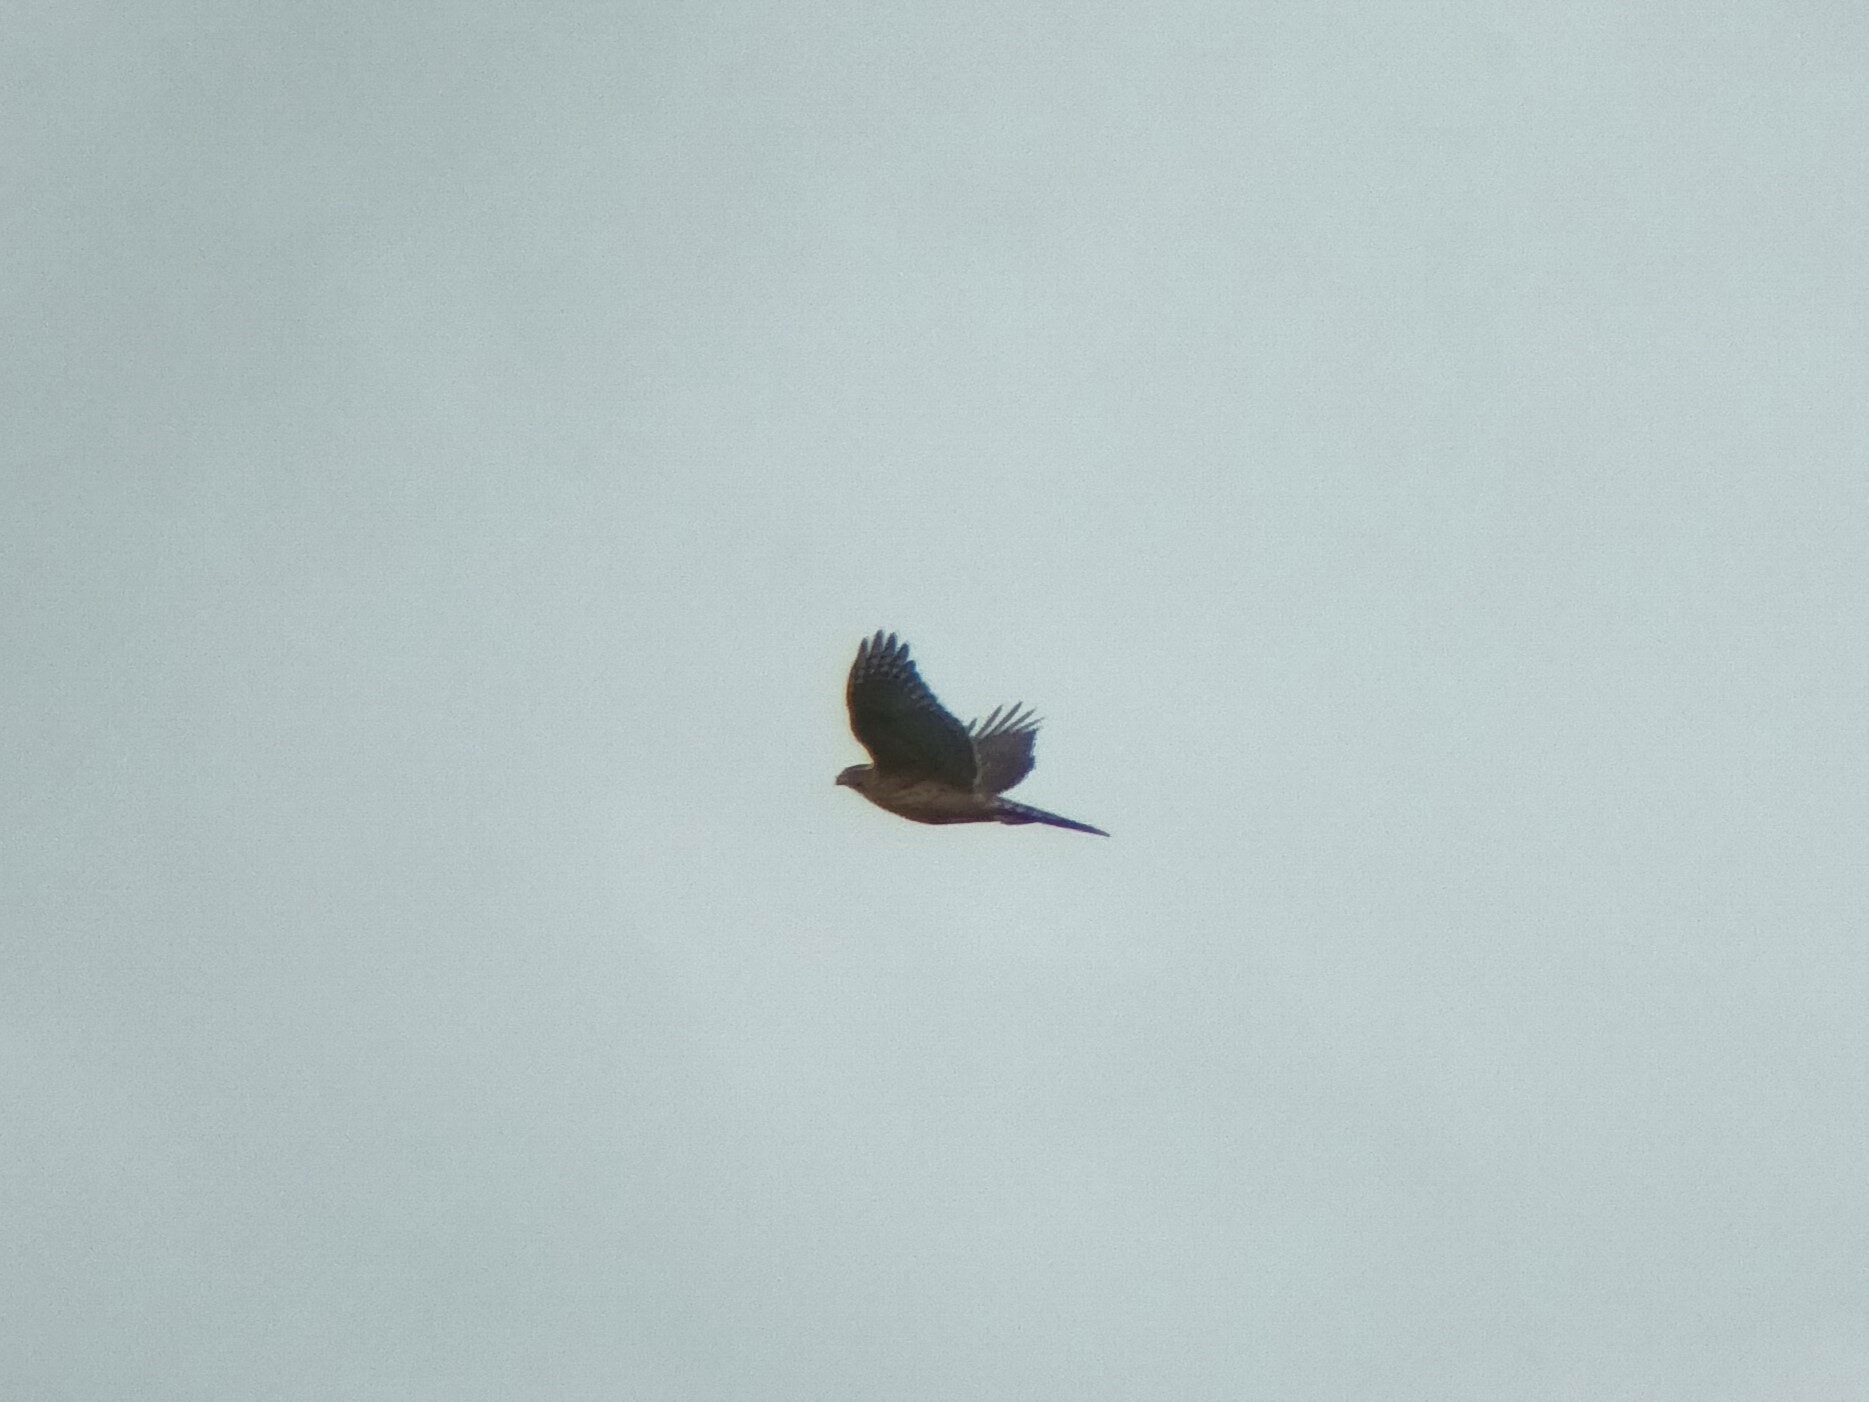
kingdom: Animalia
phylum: Chordata
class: Aves
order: Accipitriformes
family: Accipitridae
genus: Accipiter
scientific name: Accipiter gentilis
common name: Northern goshawk
